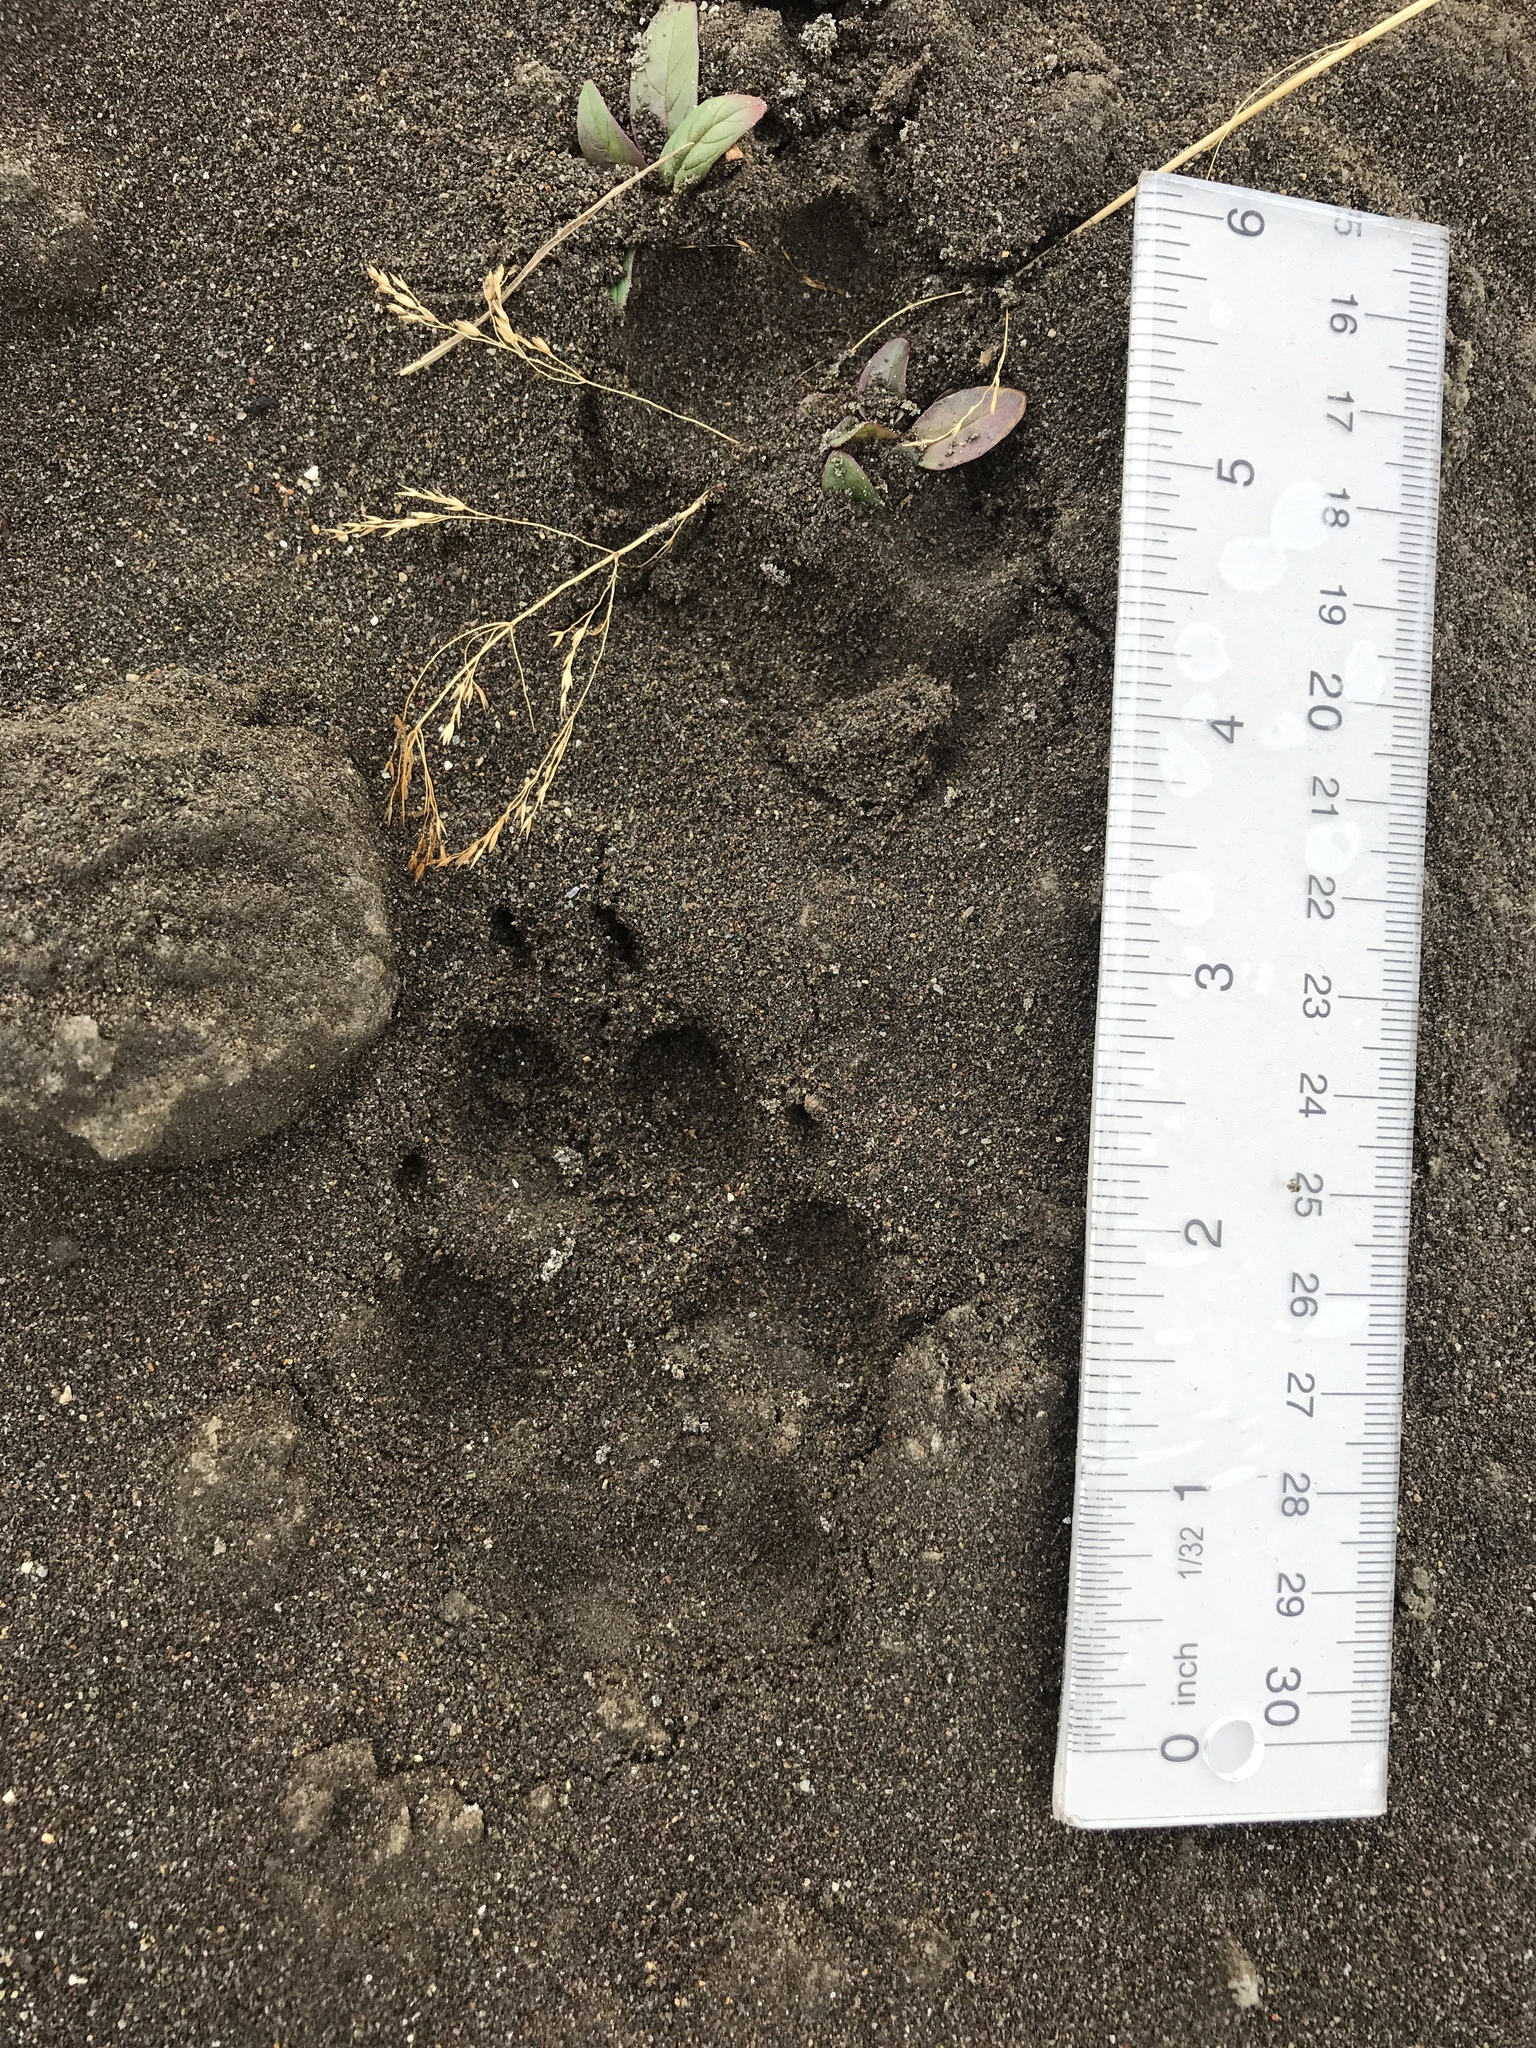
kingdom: Animalia
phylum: Chordata
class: Mammalia
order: Carnivora
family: Canidae
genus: Canis
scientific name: Canis latrans
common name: Coyote
